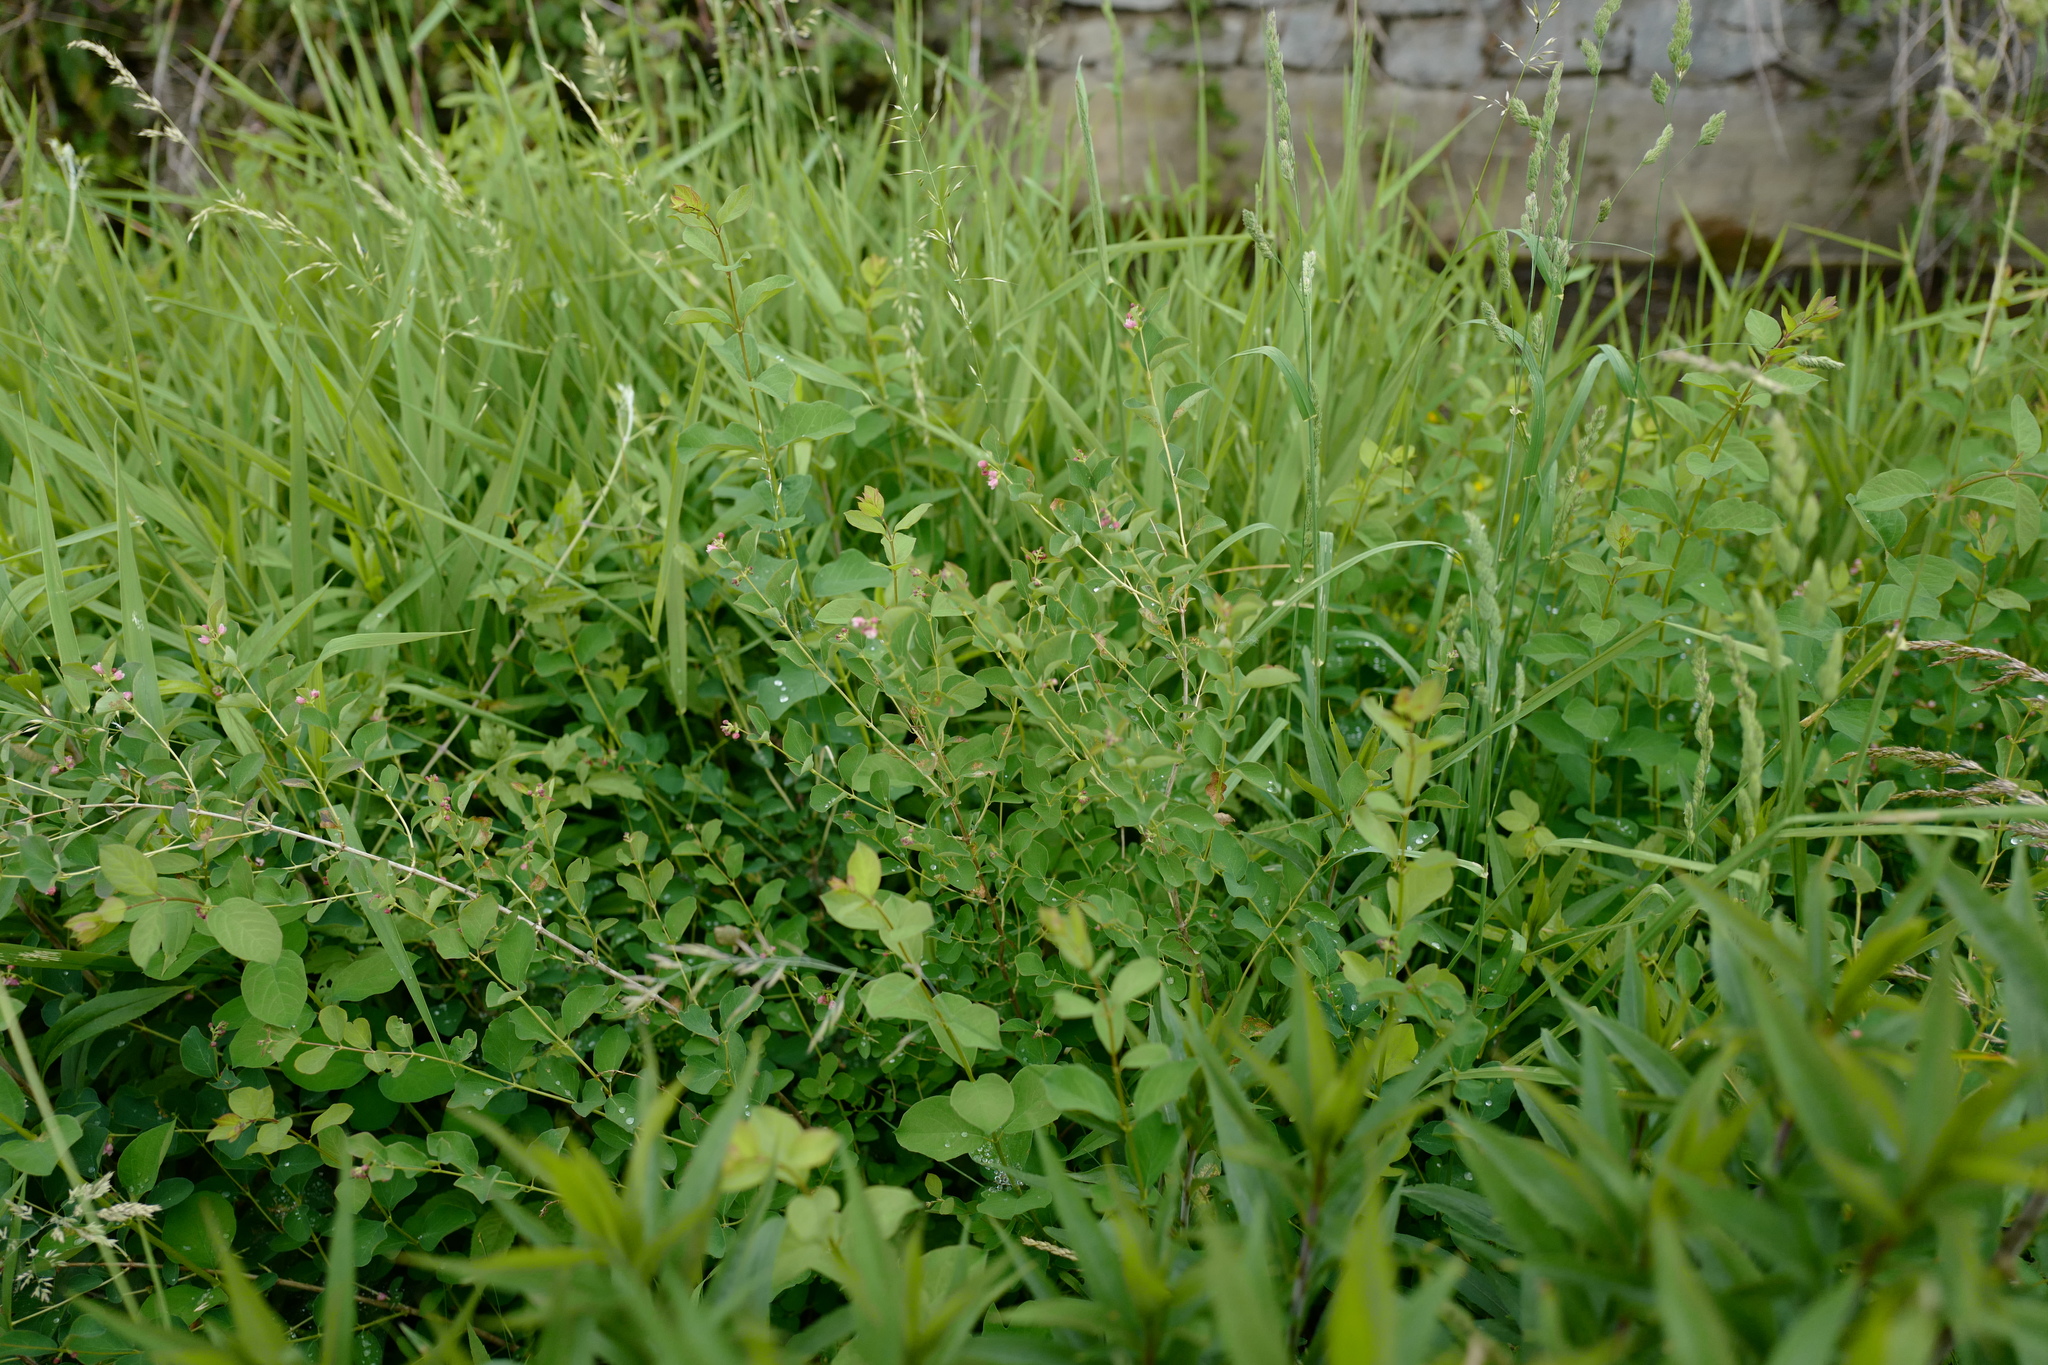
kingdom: Plantae
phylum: Tracheophyta
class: Magnoliopsida
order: Dipsacales
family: Caprifoliaceae
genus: Symphoricarpos
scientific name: Symphoricarpos albus
